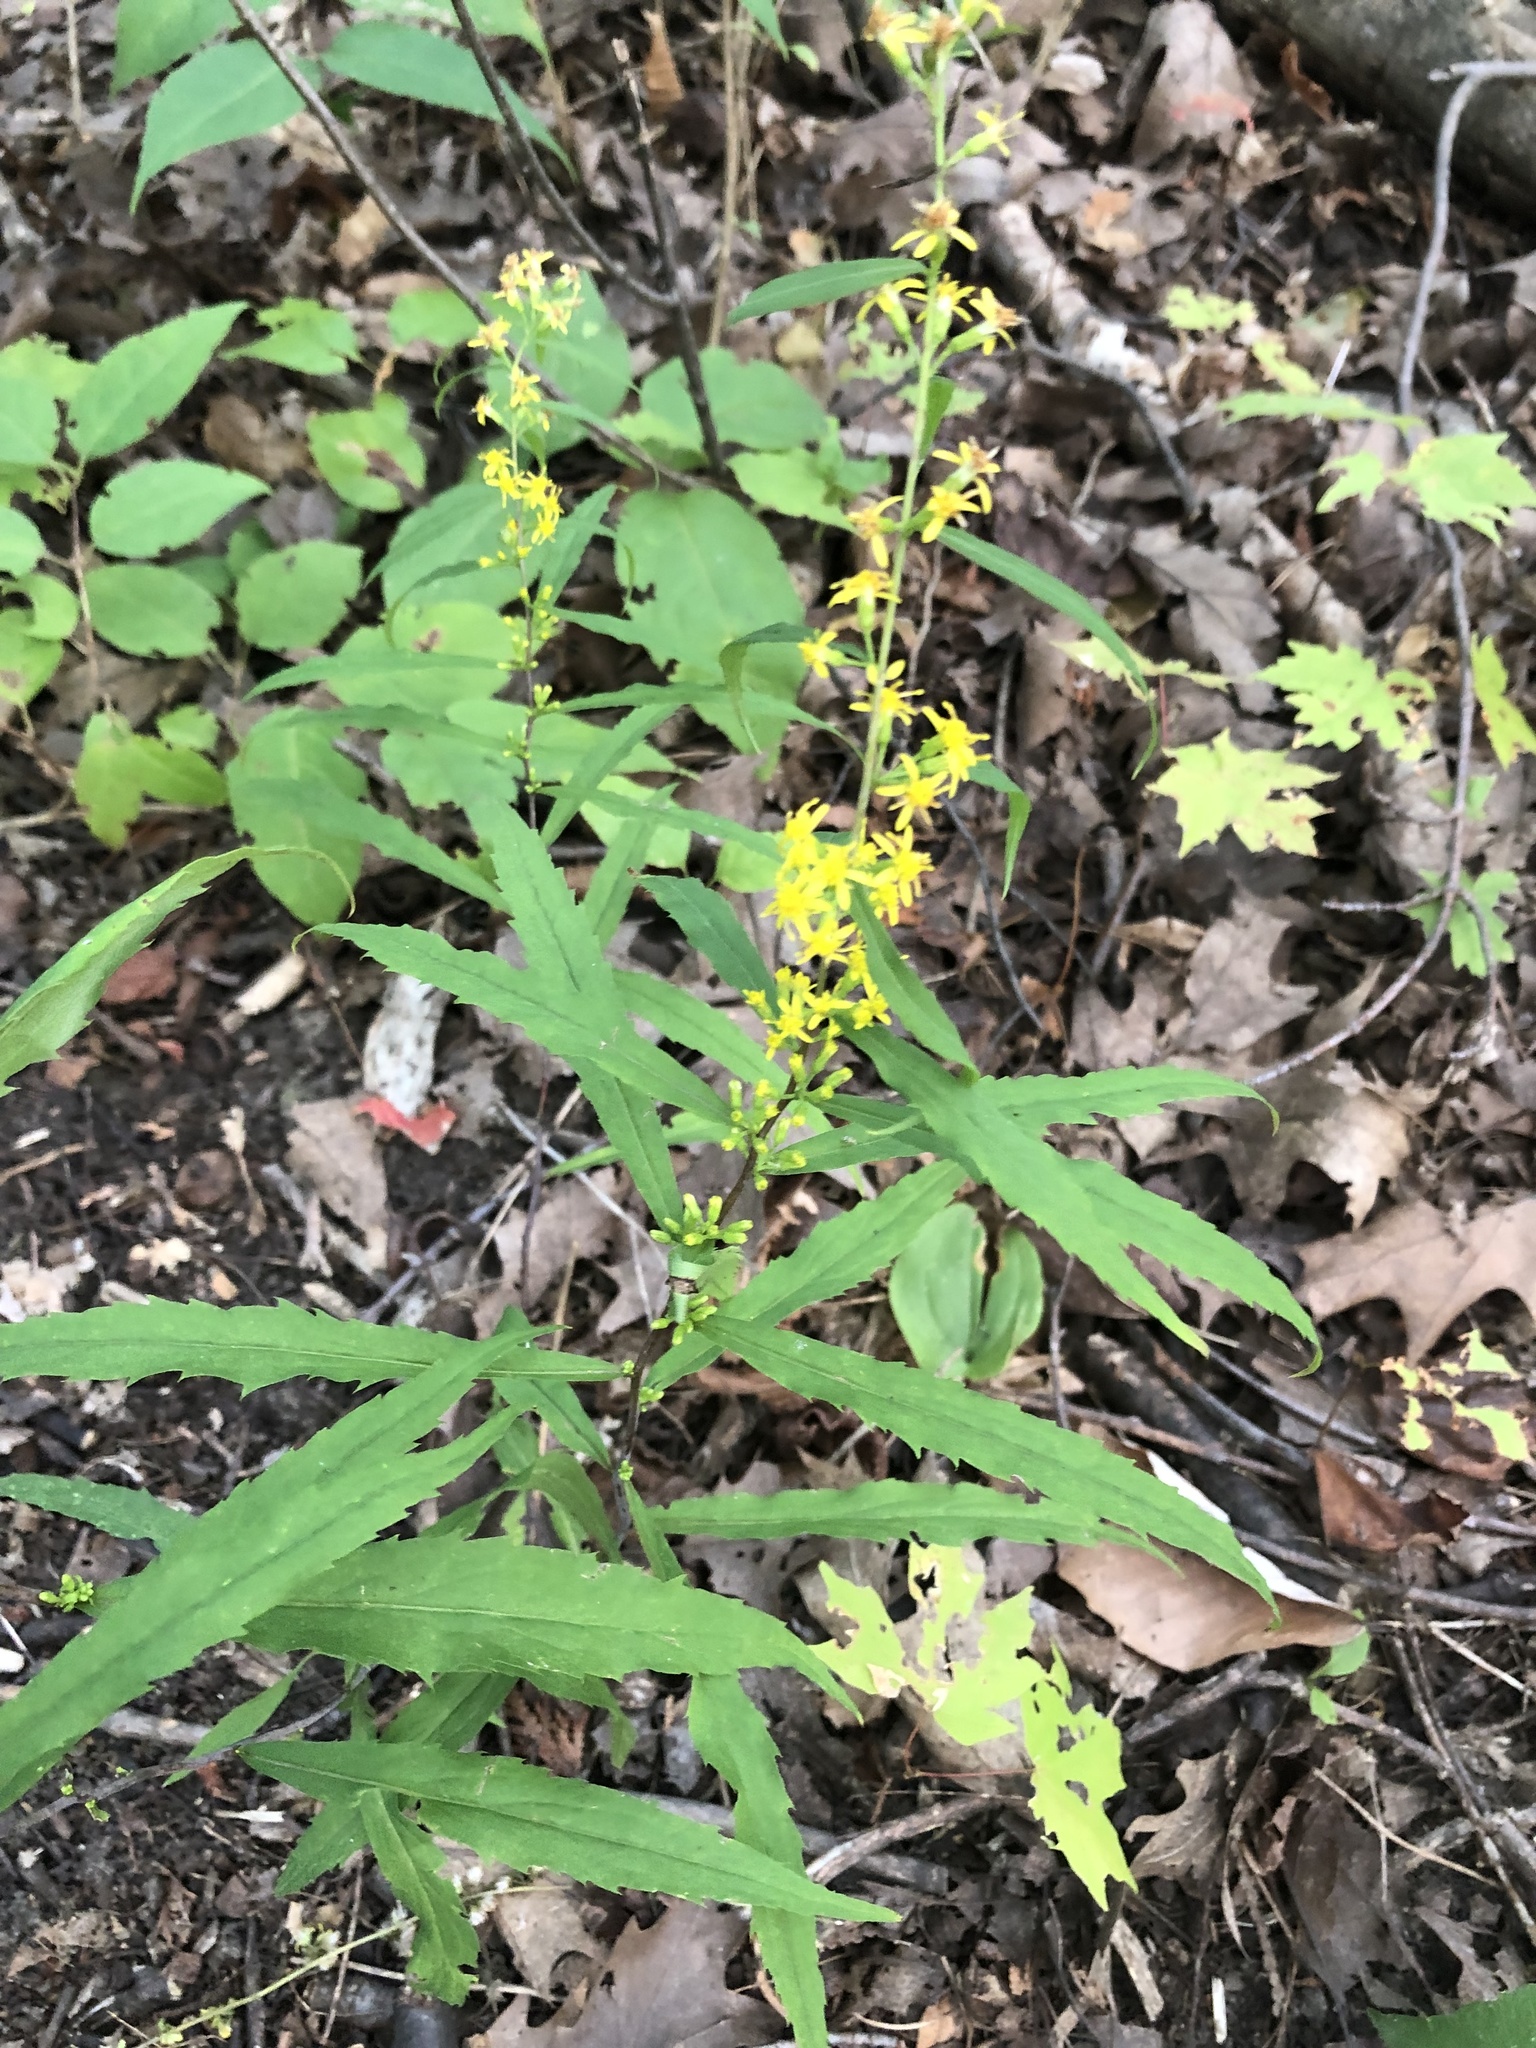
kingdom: Plantae
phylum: Tracheophyta
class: Magnoliopsida
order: Asterales
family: Asteraceae
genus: Solidago
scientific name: Solidago caesia
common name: Woodland goldenrod
